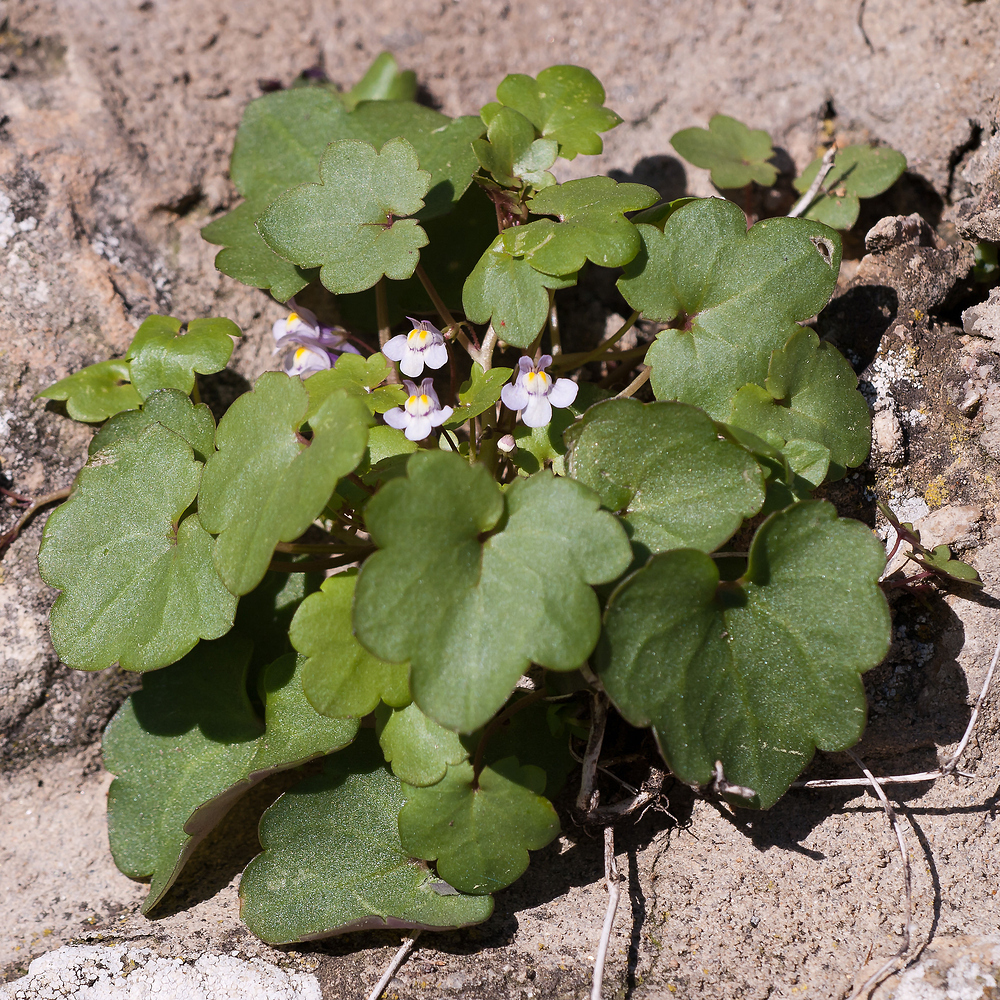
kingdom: Plantae
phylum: Tracheophyta
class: Magnoliopsida
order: Lamiales
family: Plantaginaceae
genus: Cymbalaria
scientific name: Cymbalaria muralis
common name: Ivy-leaved toadflax
